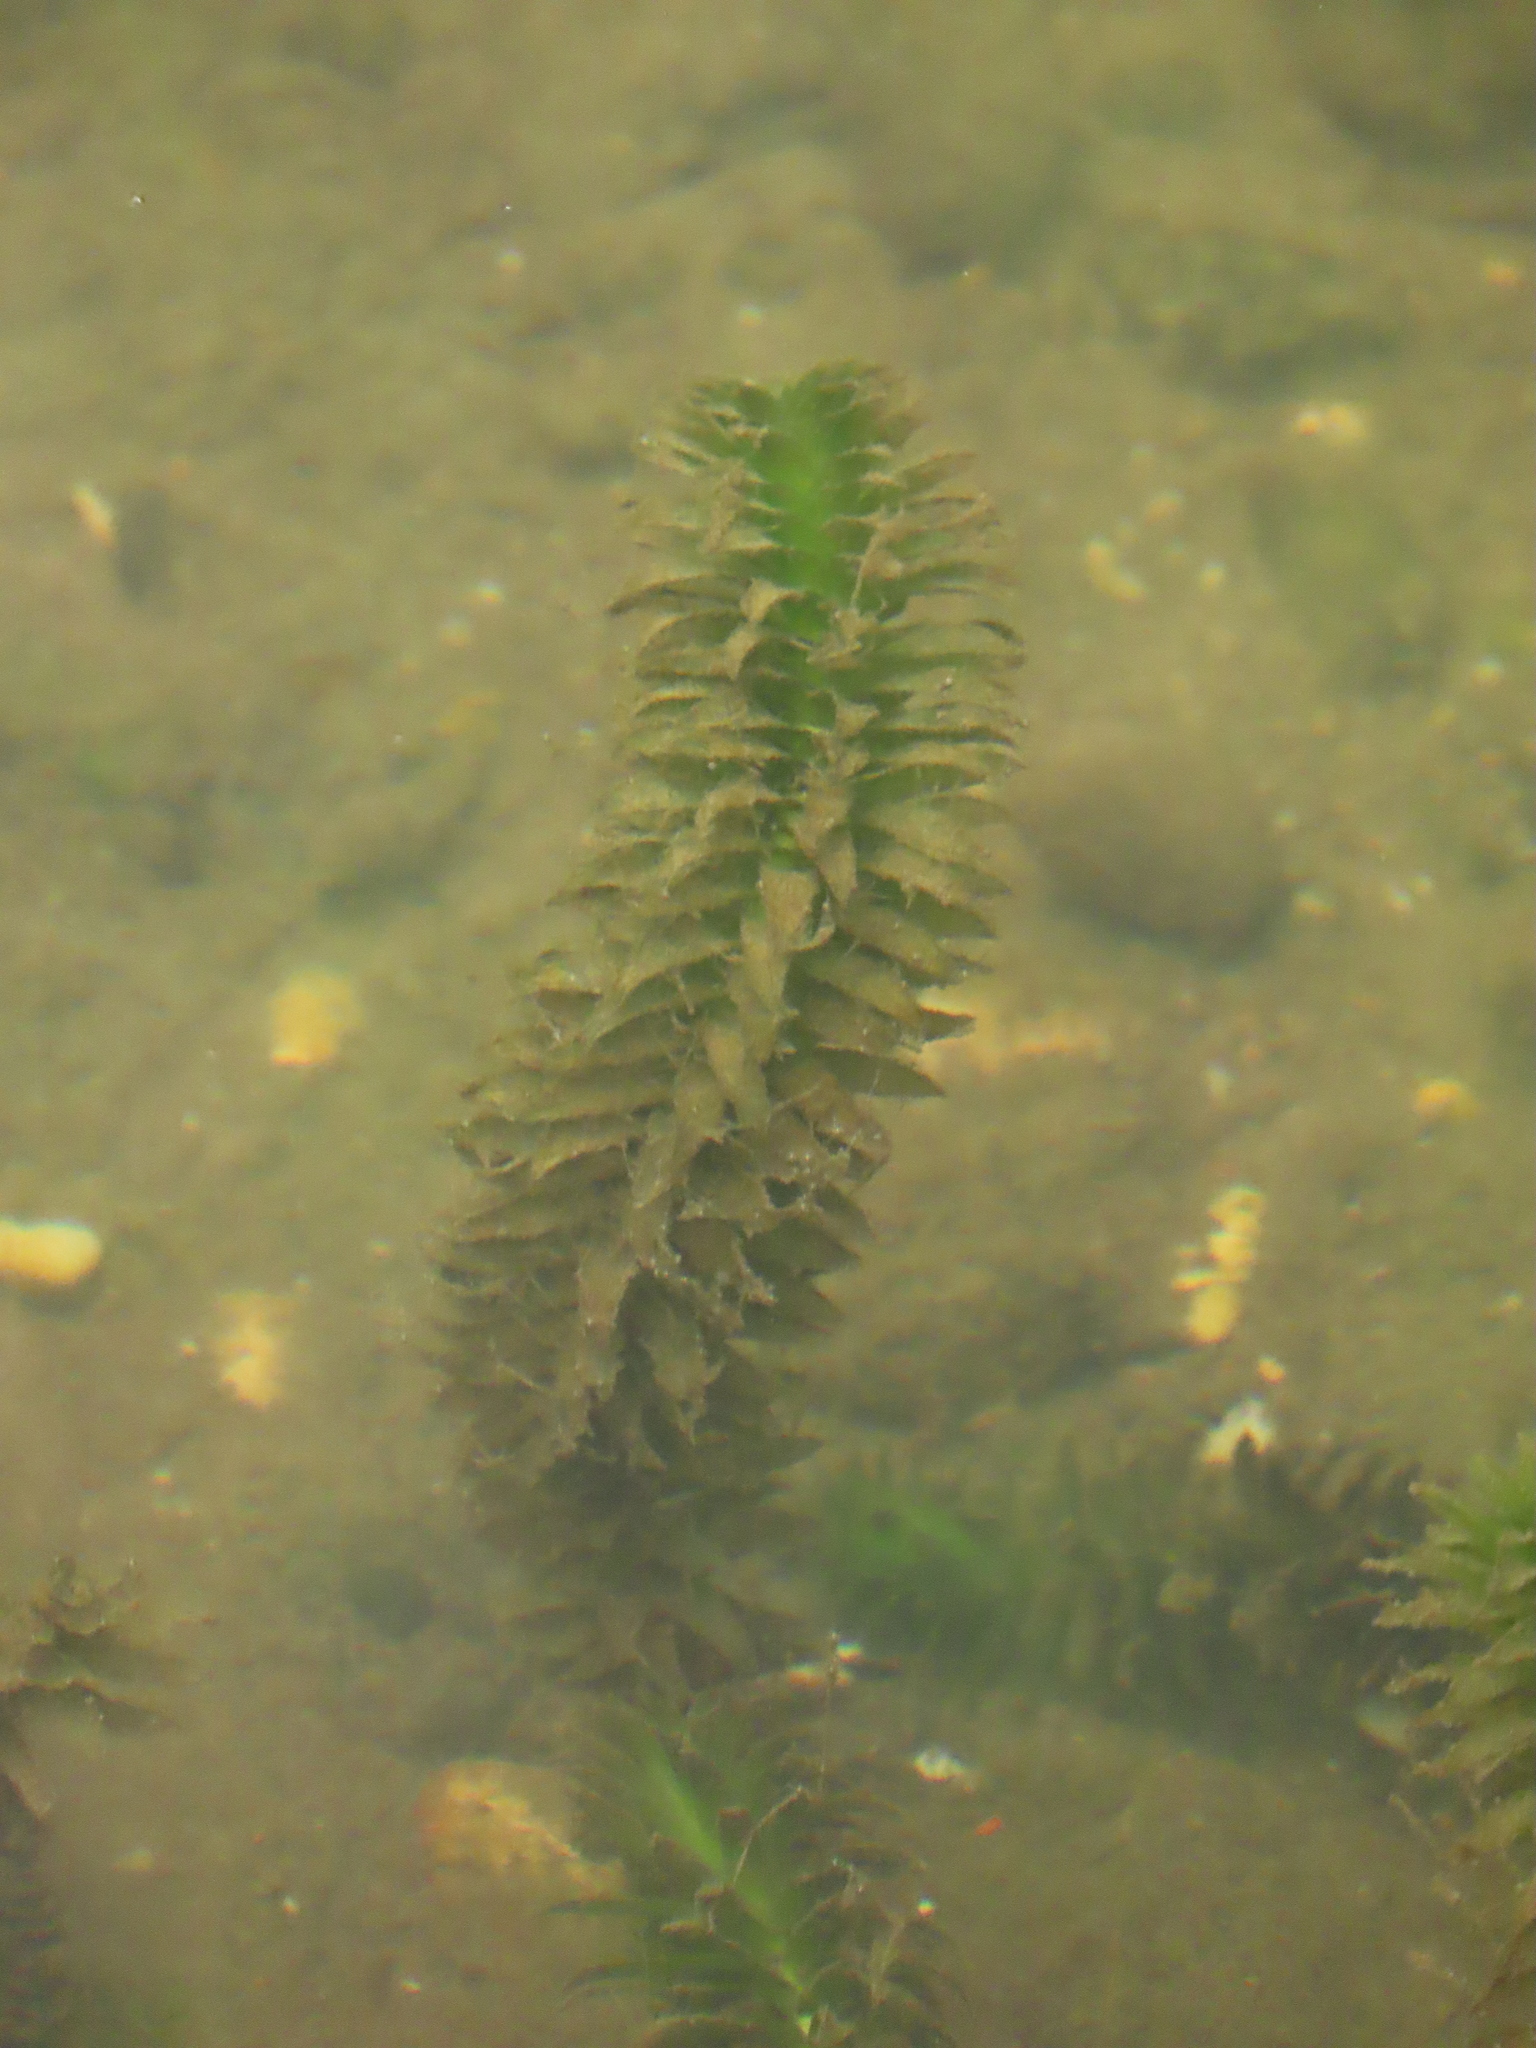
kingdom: Plantae
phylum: Tracheophyta
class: Liliopsida
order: Alismatales
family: Hydrocharitaceae
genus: Elodea
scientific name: Elodea densa
